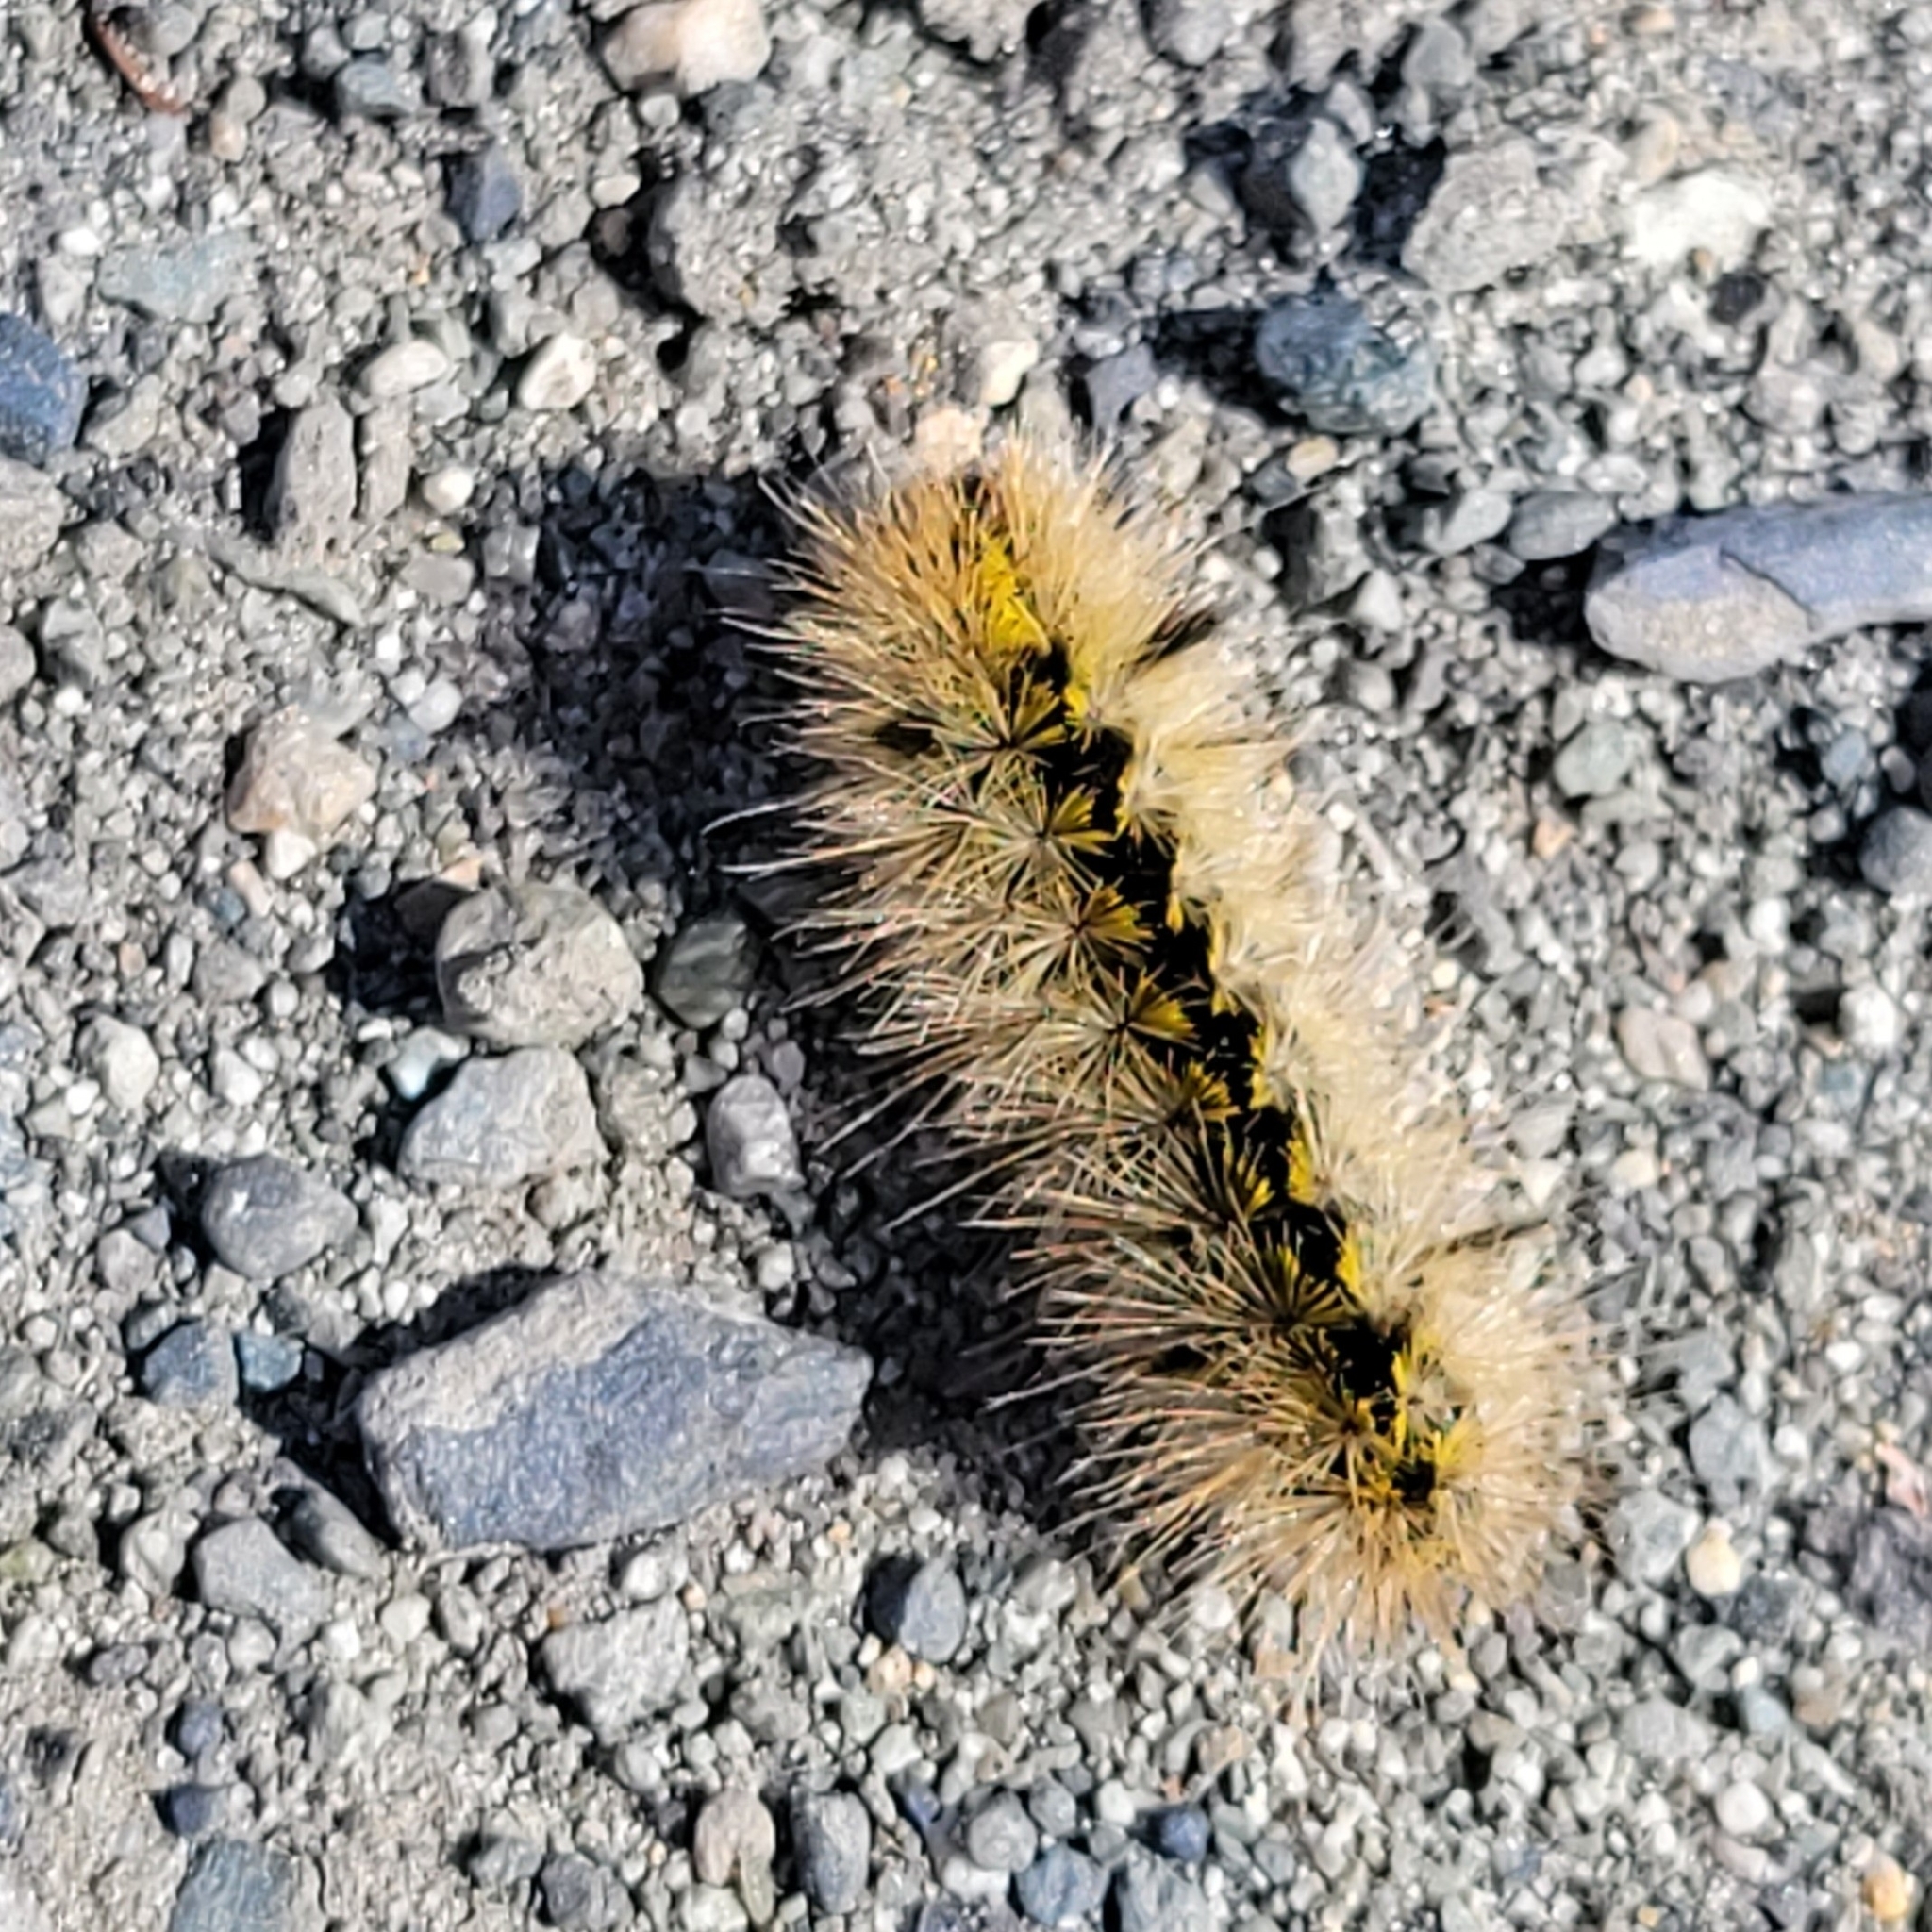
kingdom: Animalia
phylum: Arthropoda
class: Insecta
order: Lepidoptera
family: Erebidae
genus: Lophocampa
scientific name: Lophocampa argentata
